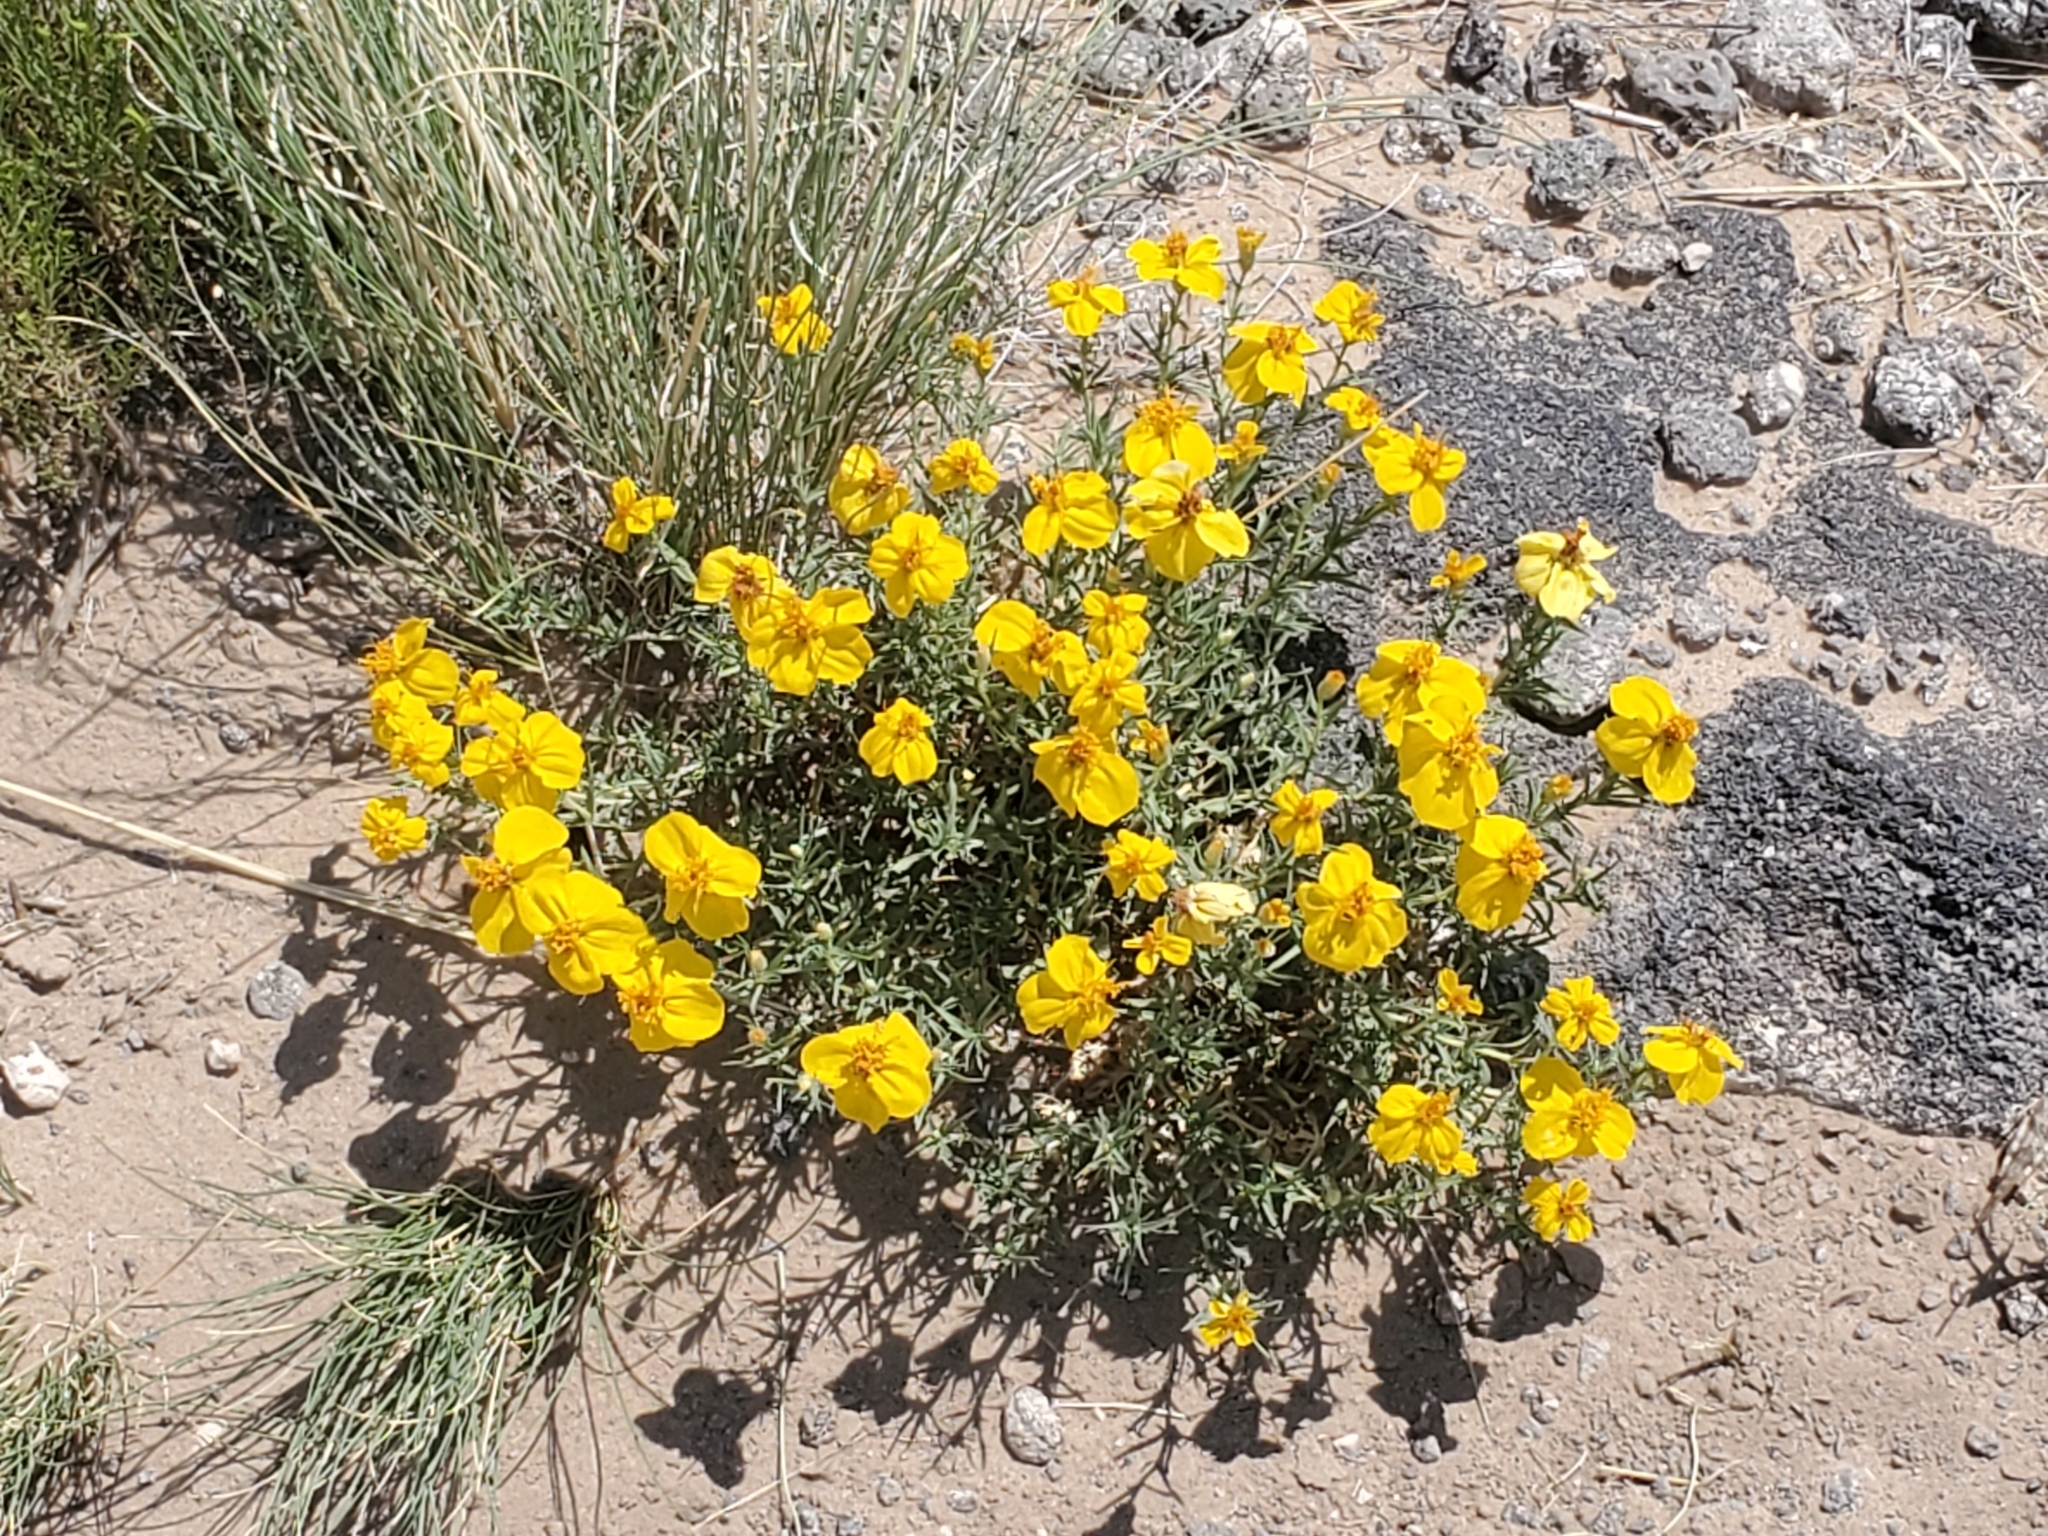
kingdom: Plantae
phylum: Tracheophyta
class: Magnoliopsida
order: Asterales
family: Asteraceae
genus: Zinnia
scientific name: Zinnia grandiflora
